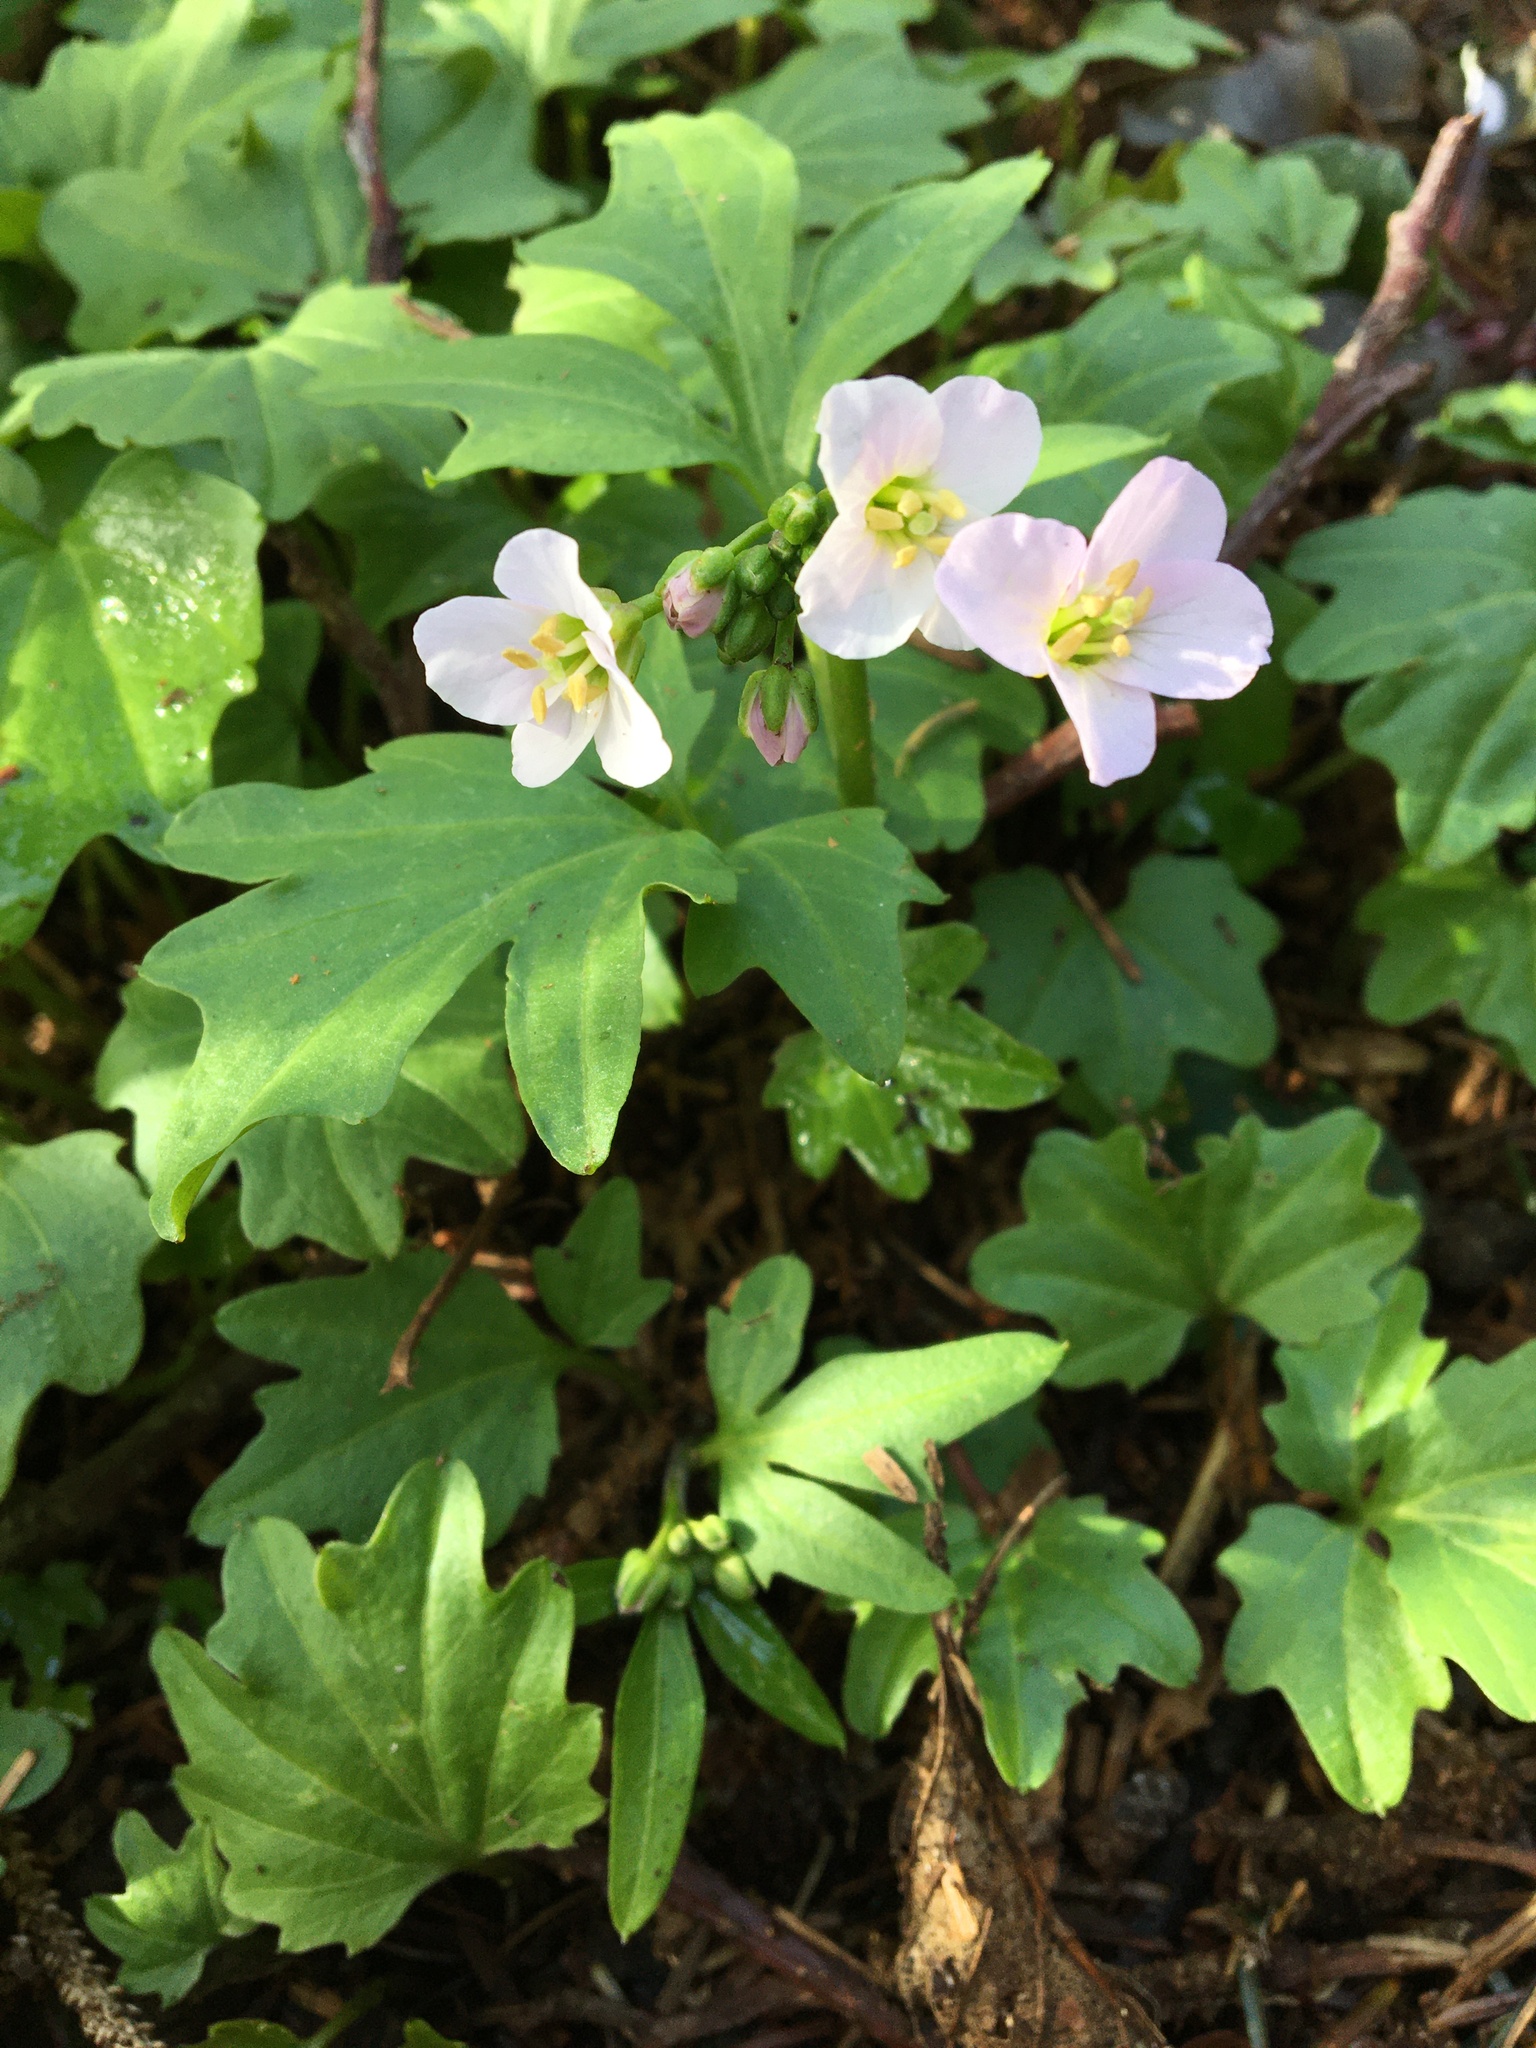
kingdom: Plantae
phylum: Tracheophyta
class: Magnoliopsida
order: Brassicales
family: Brassicaceae
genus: Cardamine
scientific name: Cardamine californica
